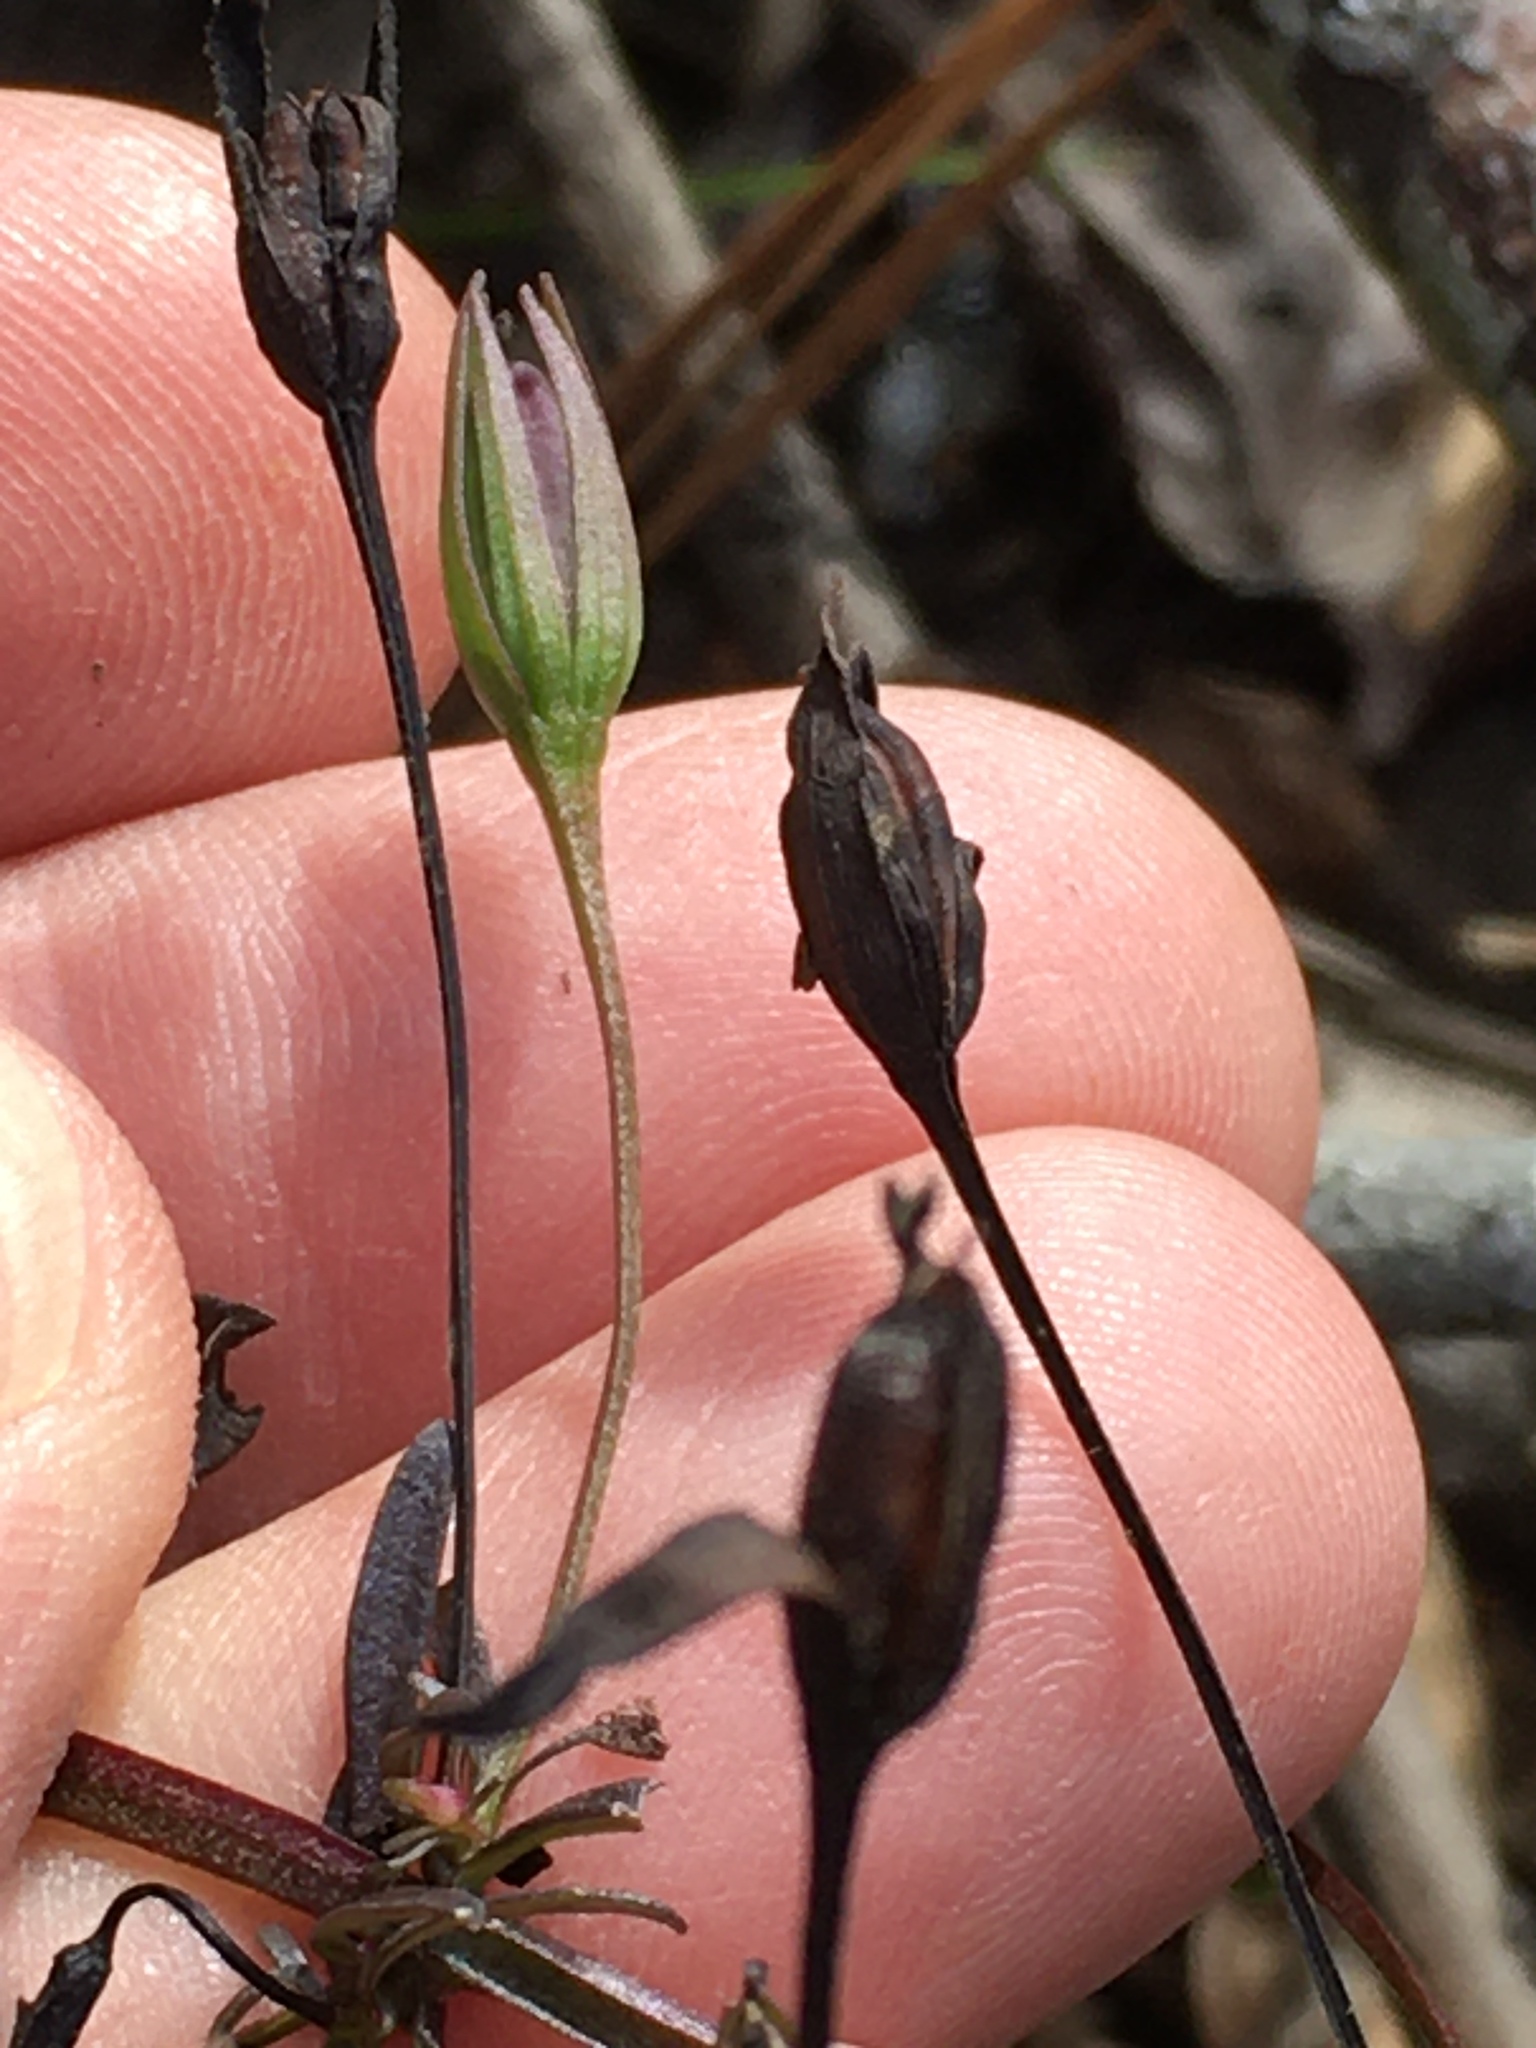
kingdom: Plantae
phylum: Tracheophyta
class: Magnoliopsida
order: Lamiales
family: Plantaginaceae
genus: Mecardonia
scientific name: Mecardonia acuminata
